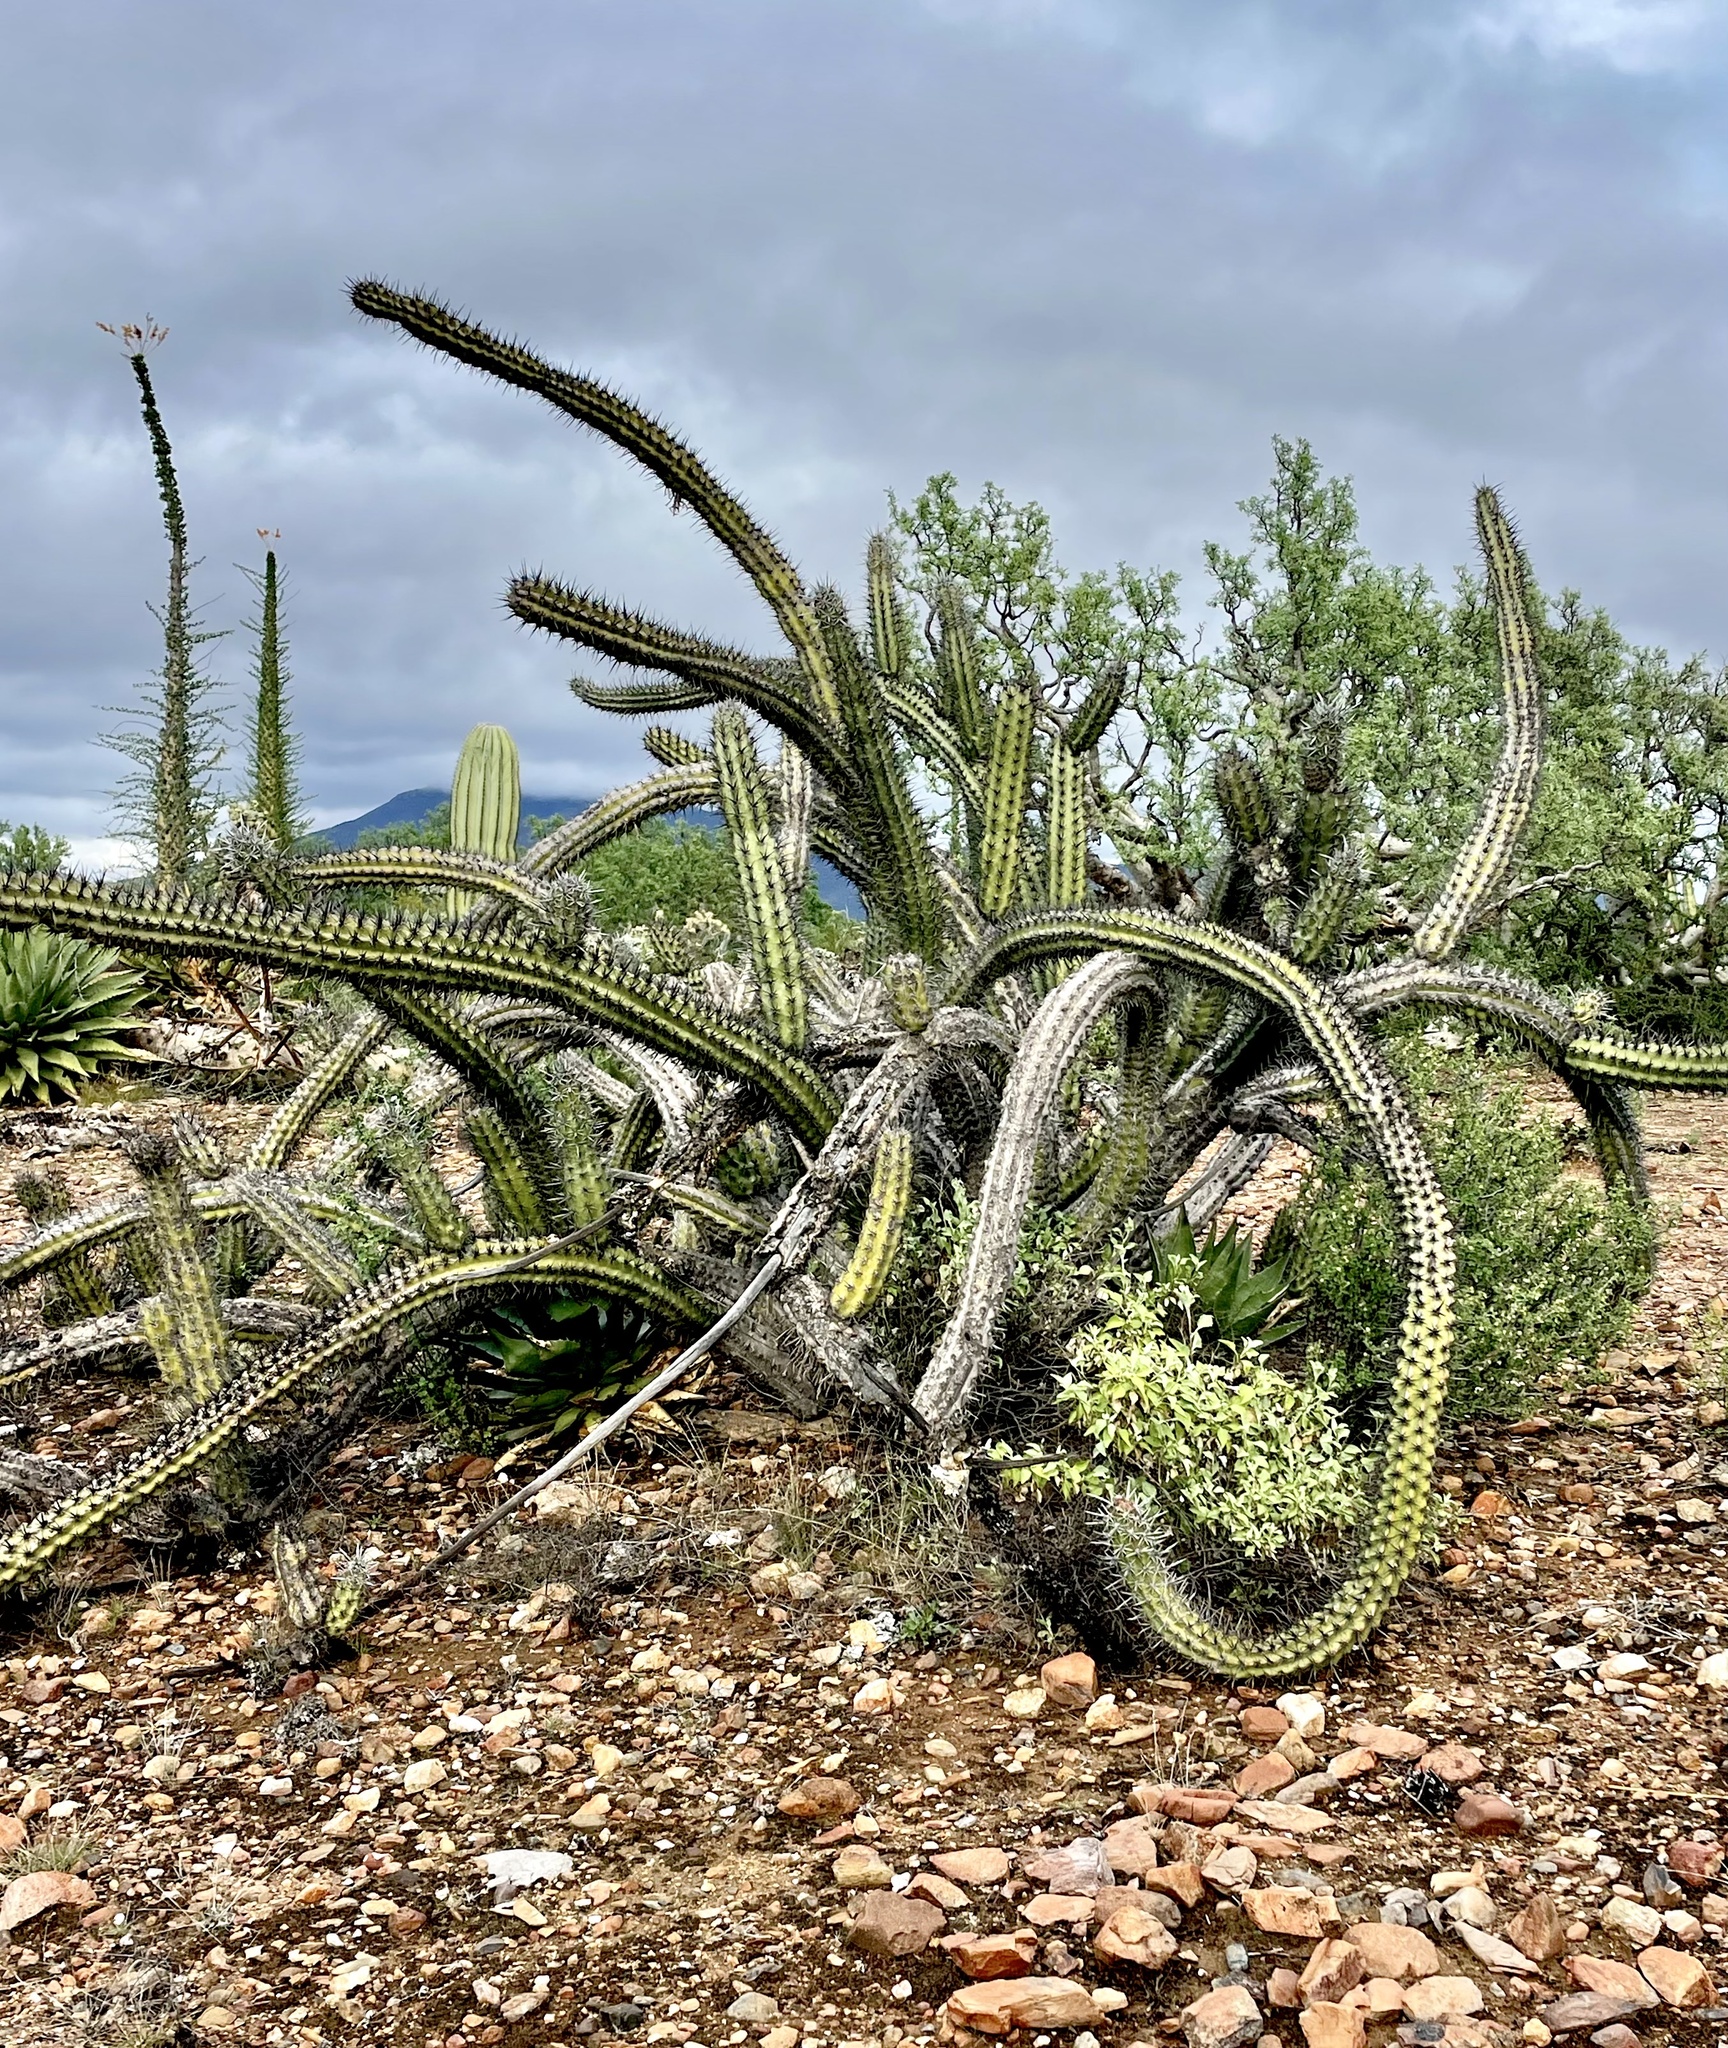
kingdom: Plantae
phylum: Tracheophyta
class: Magnoliopsida
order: Caryophyllales
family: Cactaceae
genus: Stenocereus
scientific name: Stenocereus gummosus
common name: Dagger cactus
